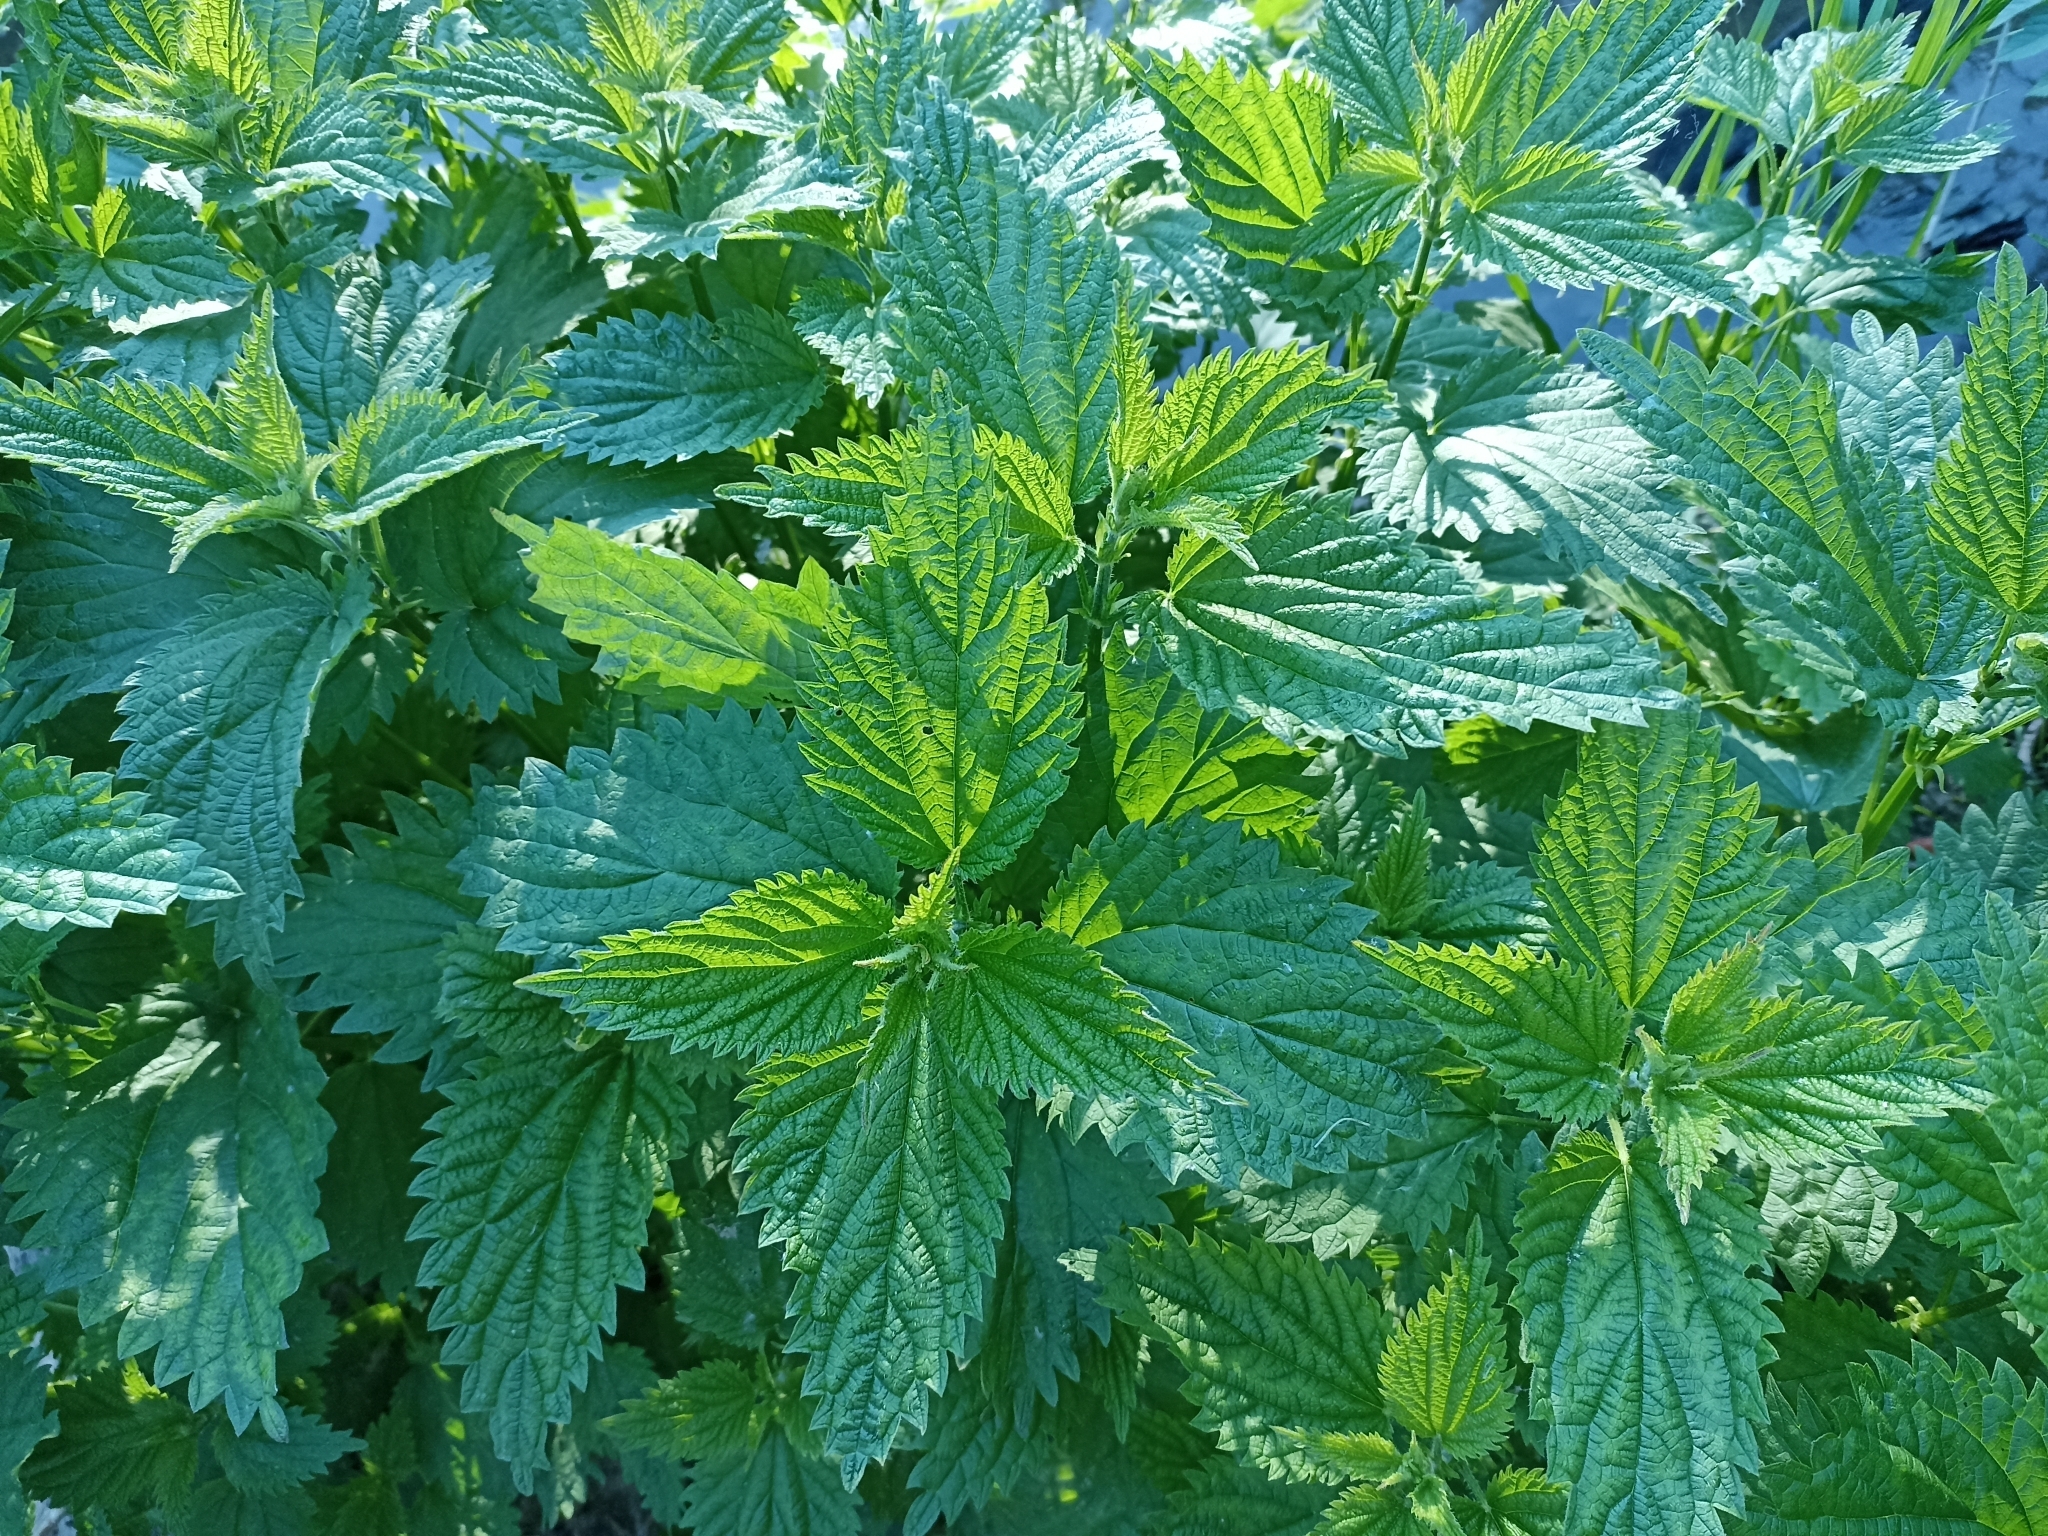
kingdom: Plantae
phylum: Tracheophyta
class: Magnoliopsida
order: Rosales
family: Urticaceae
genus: Urtica
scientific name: Urtica dioica
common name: Common nettle
